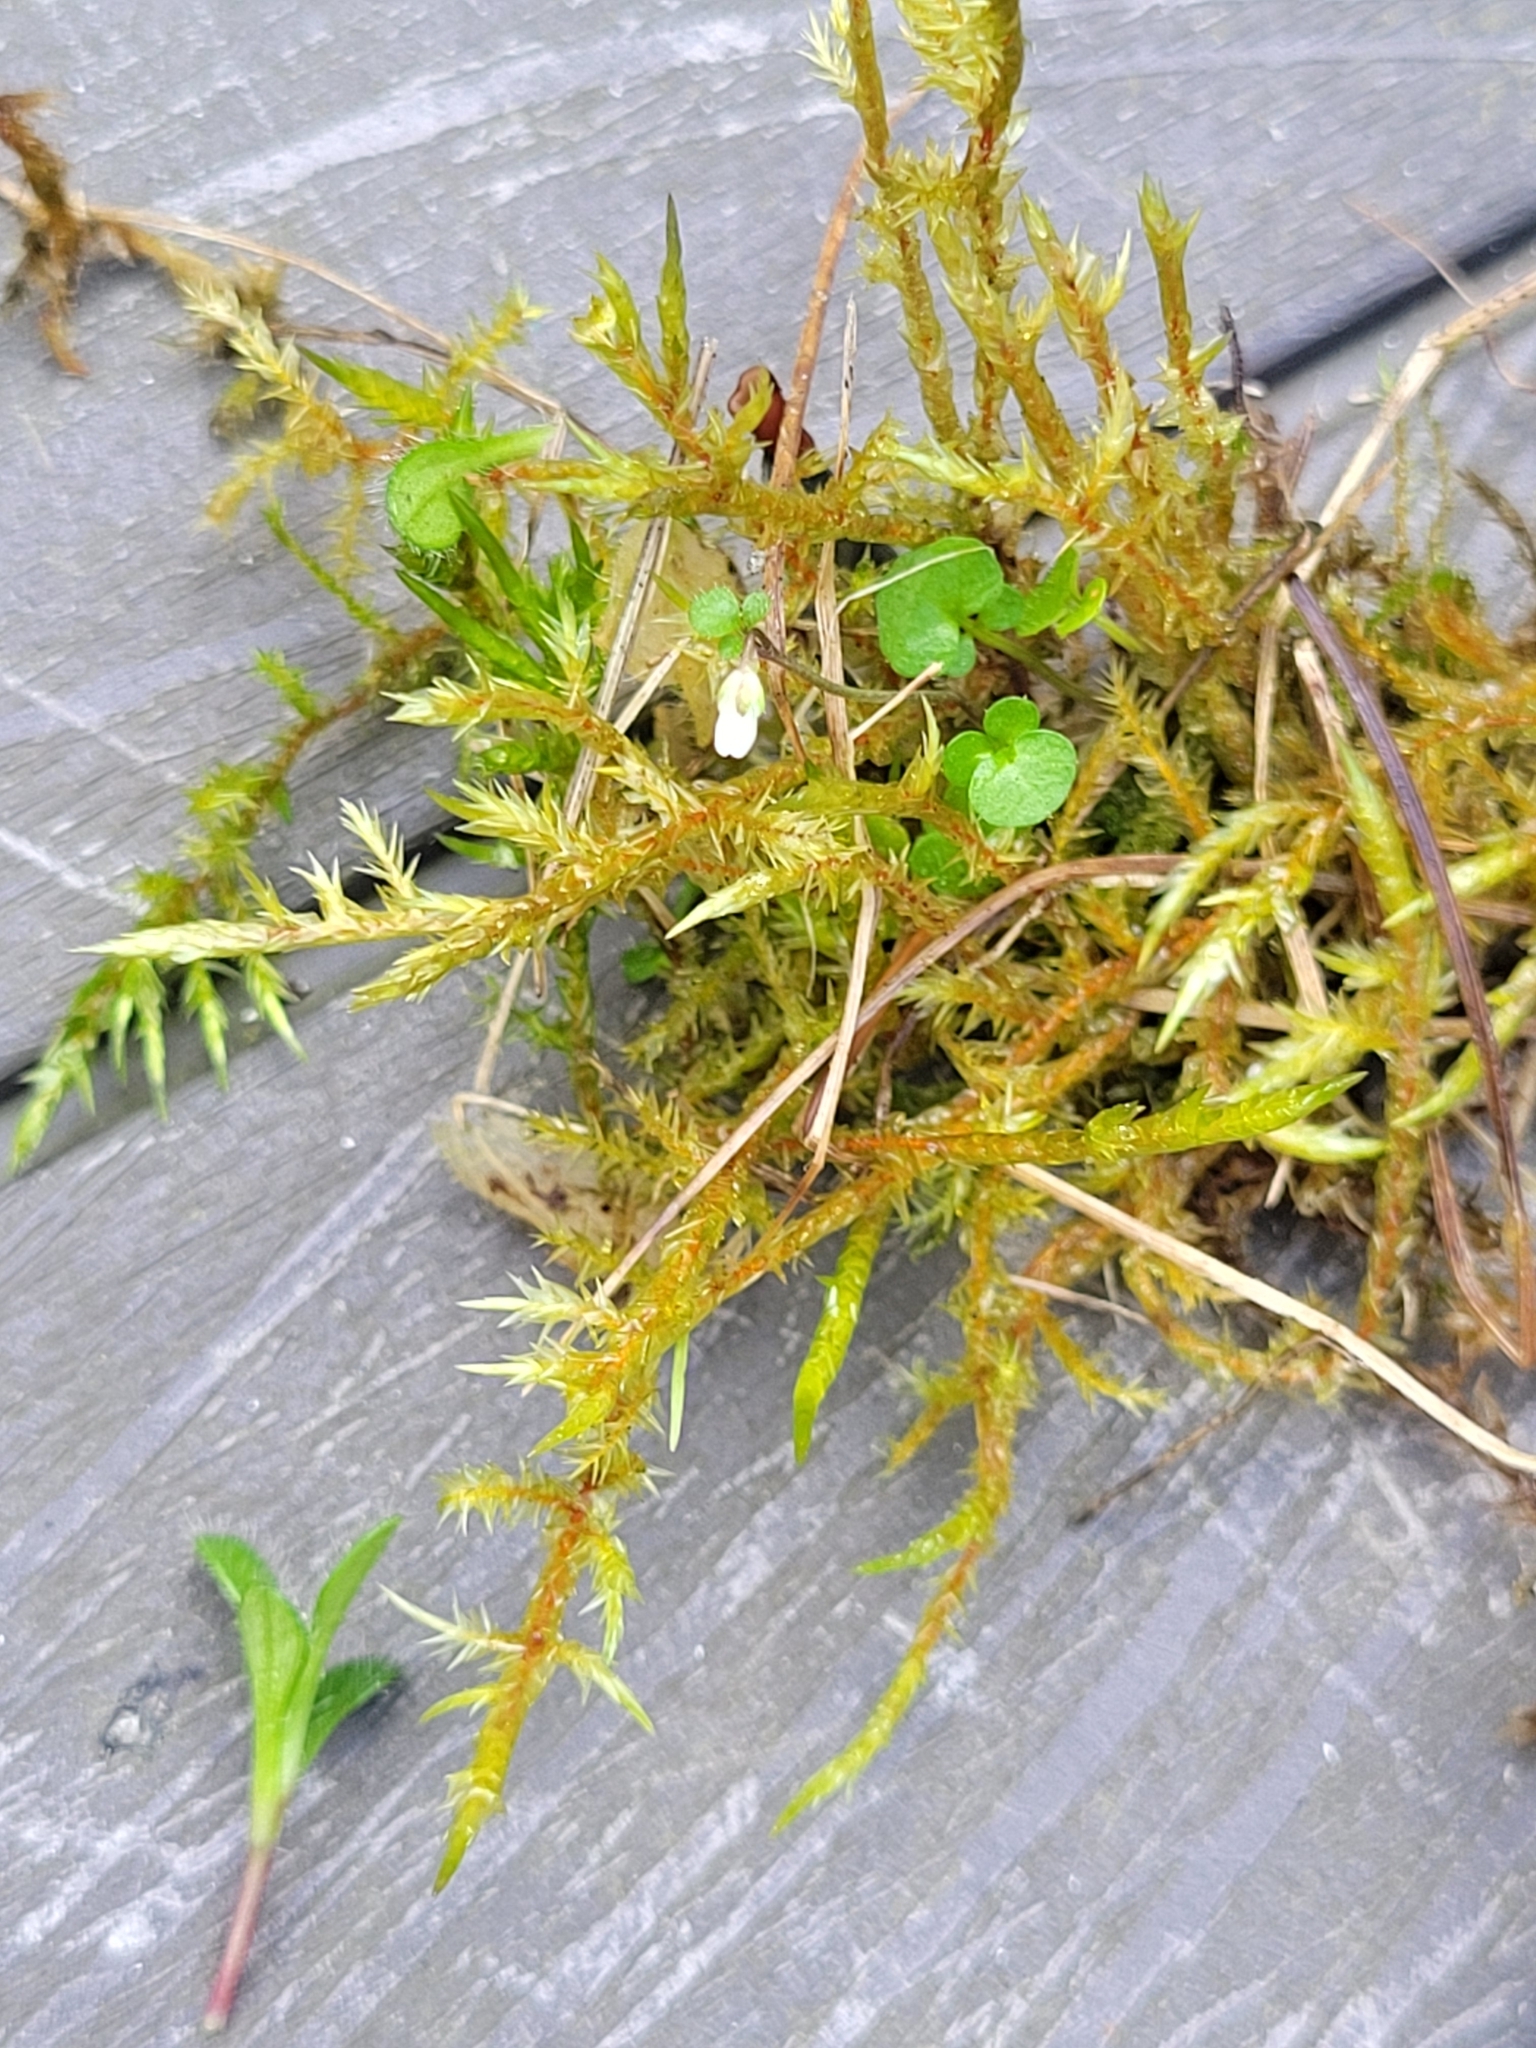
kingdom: Plantae
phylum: Bryophyta
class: Bryopsida
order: Hypnales
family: Pylaisiaceae
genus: Calliergonella
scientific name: Calliergonella cuspidata
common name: Common large wetland moss
